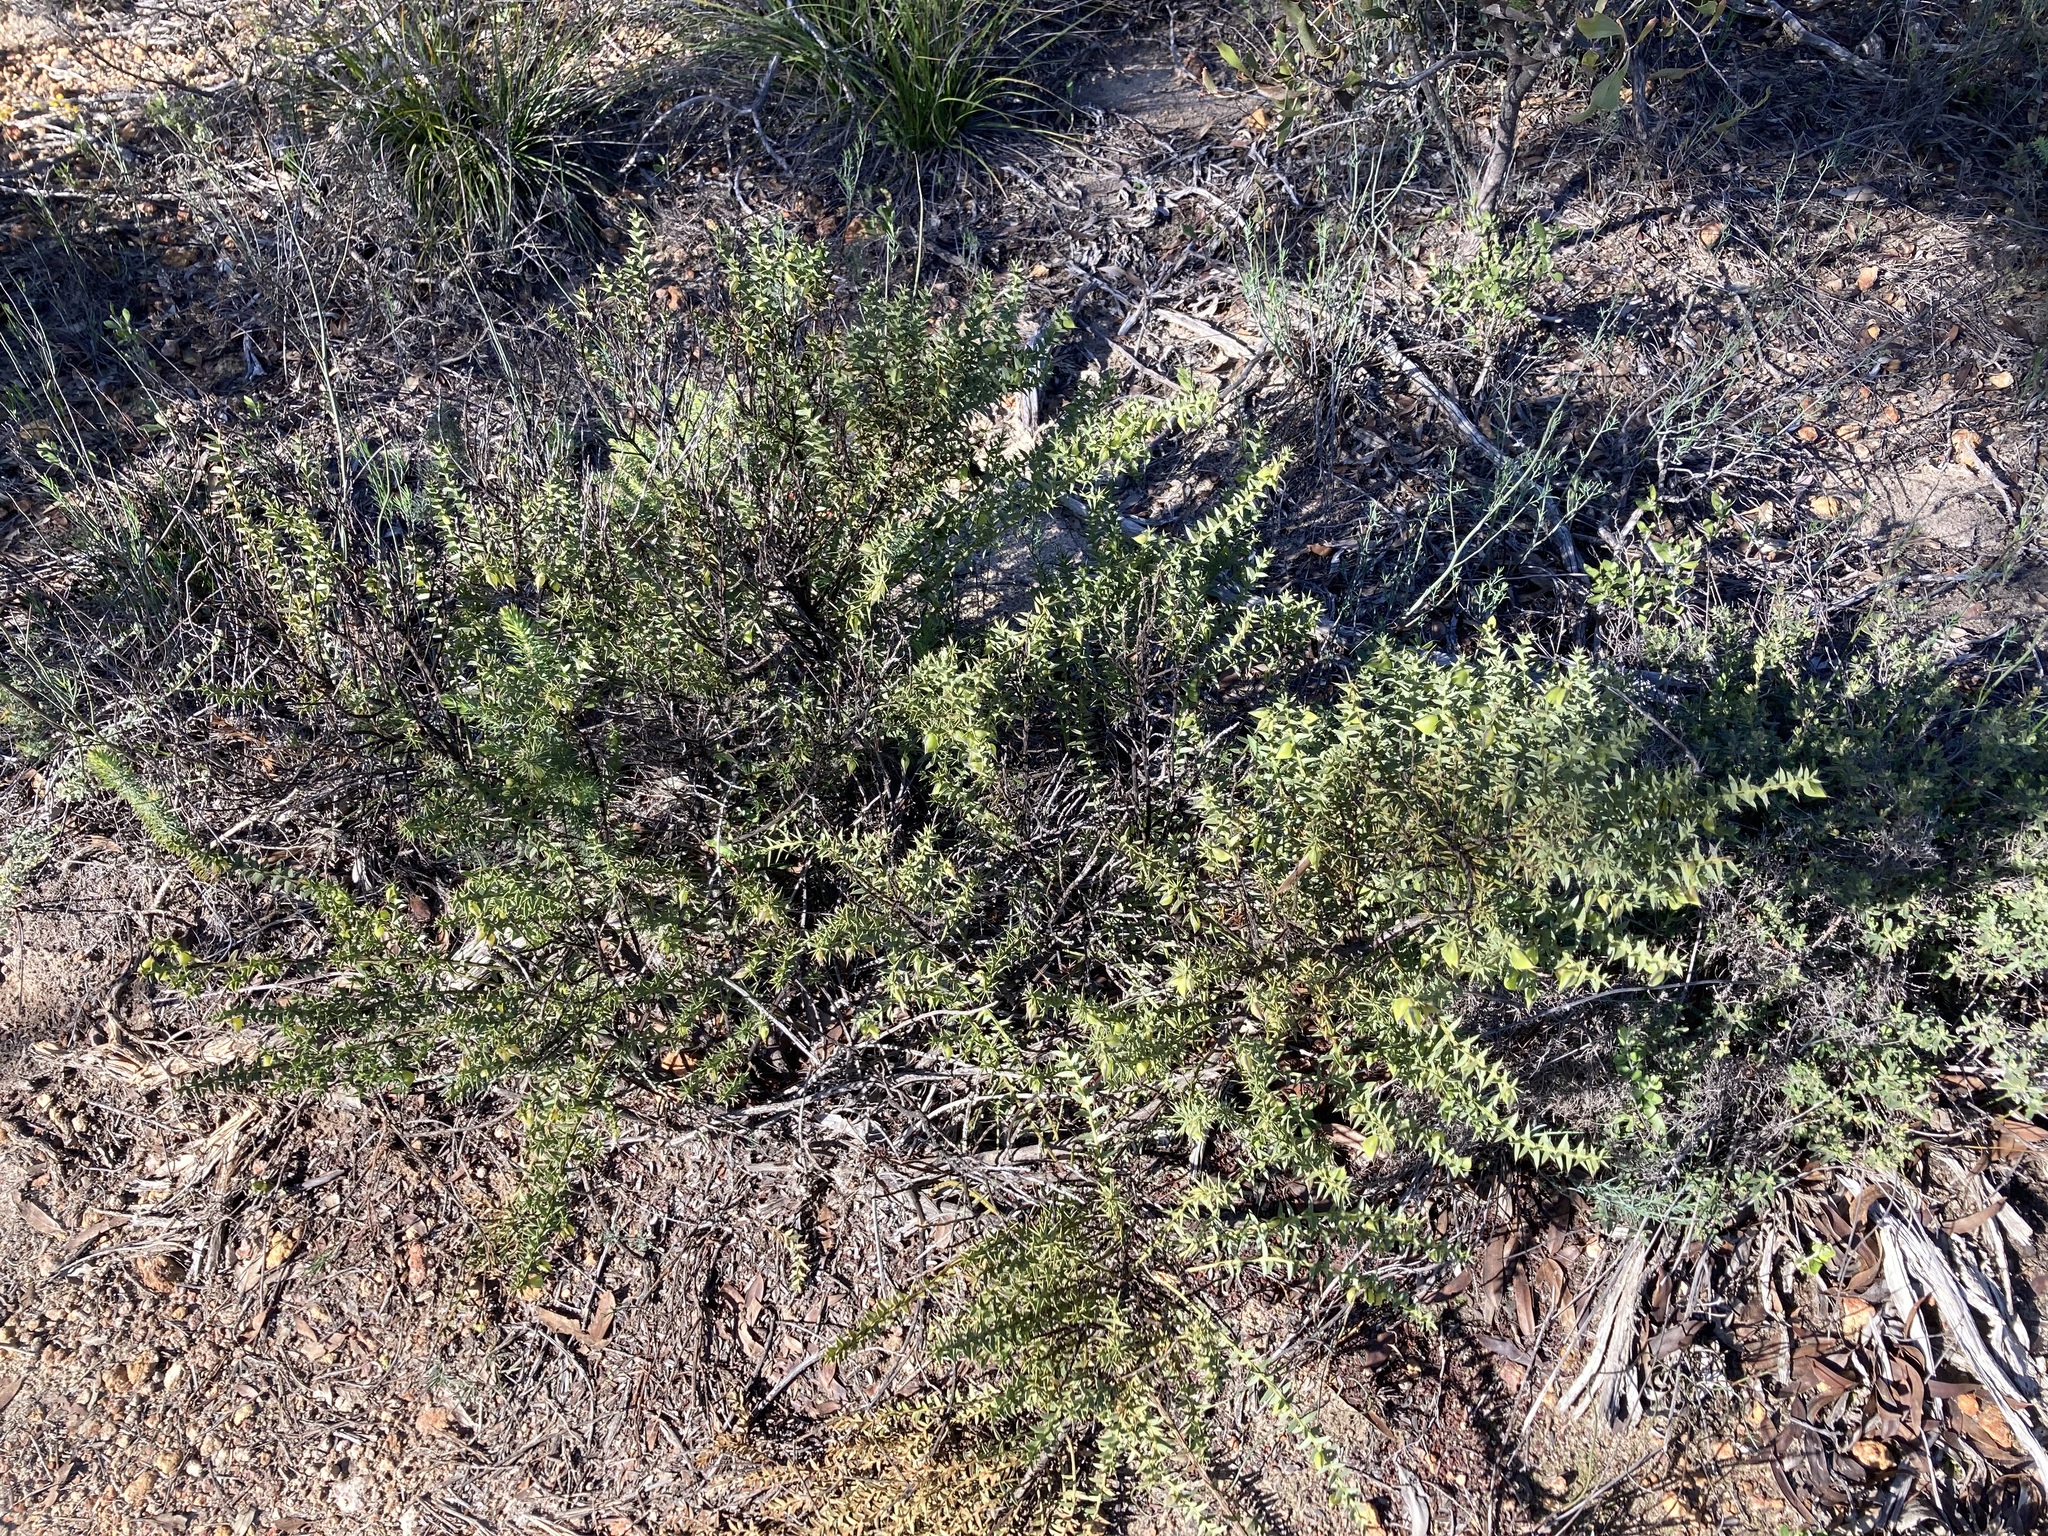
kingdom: Plantae
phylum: Tracheophyta
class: Magnoliopsida
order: Fabales
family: Fabaceae
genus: Daviesia
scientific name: Daviesia chapmanii
